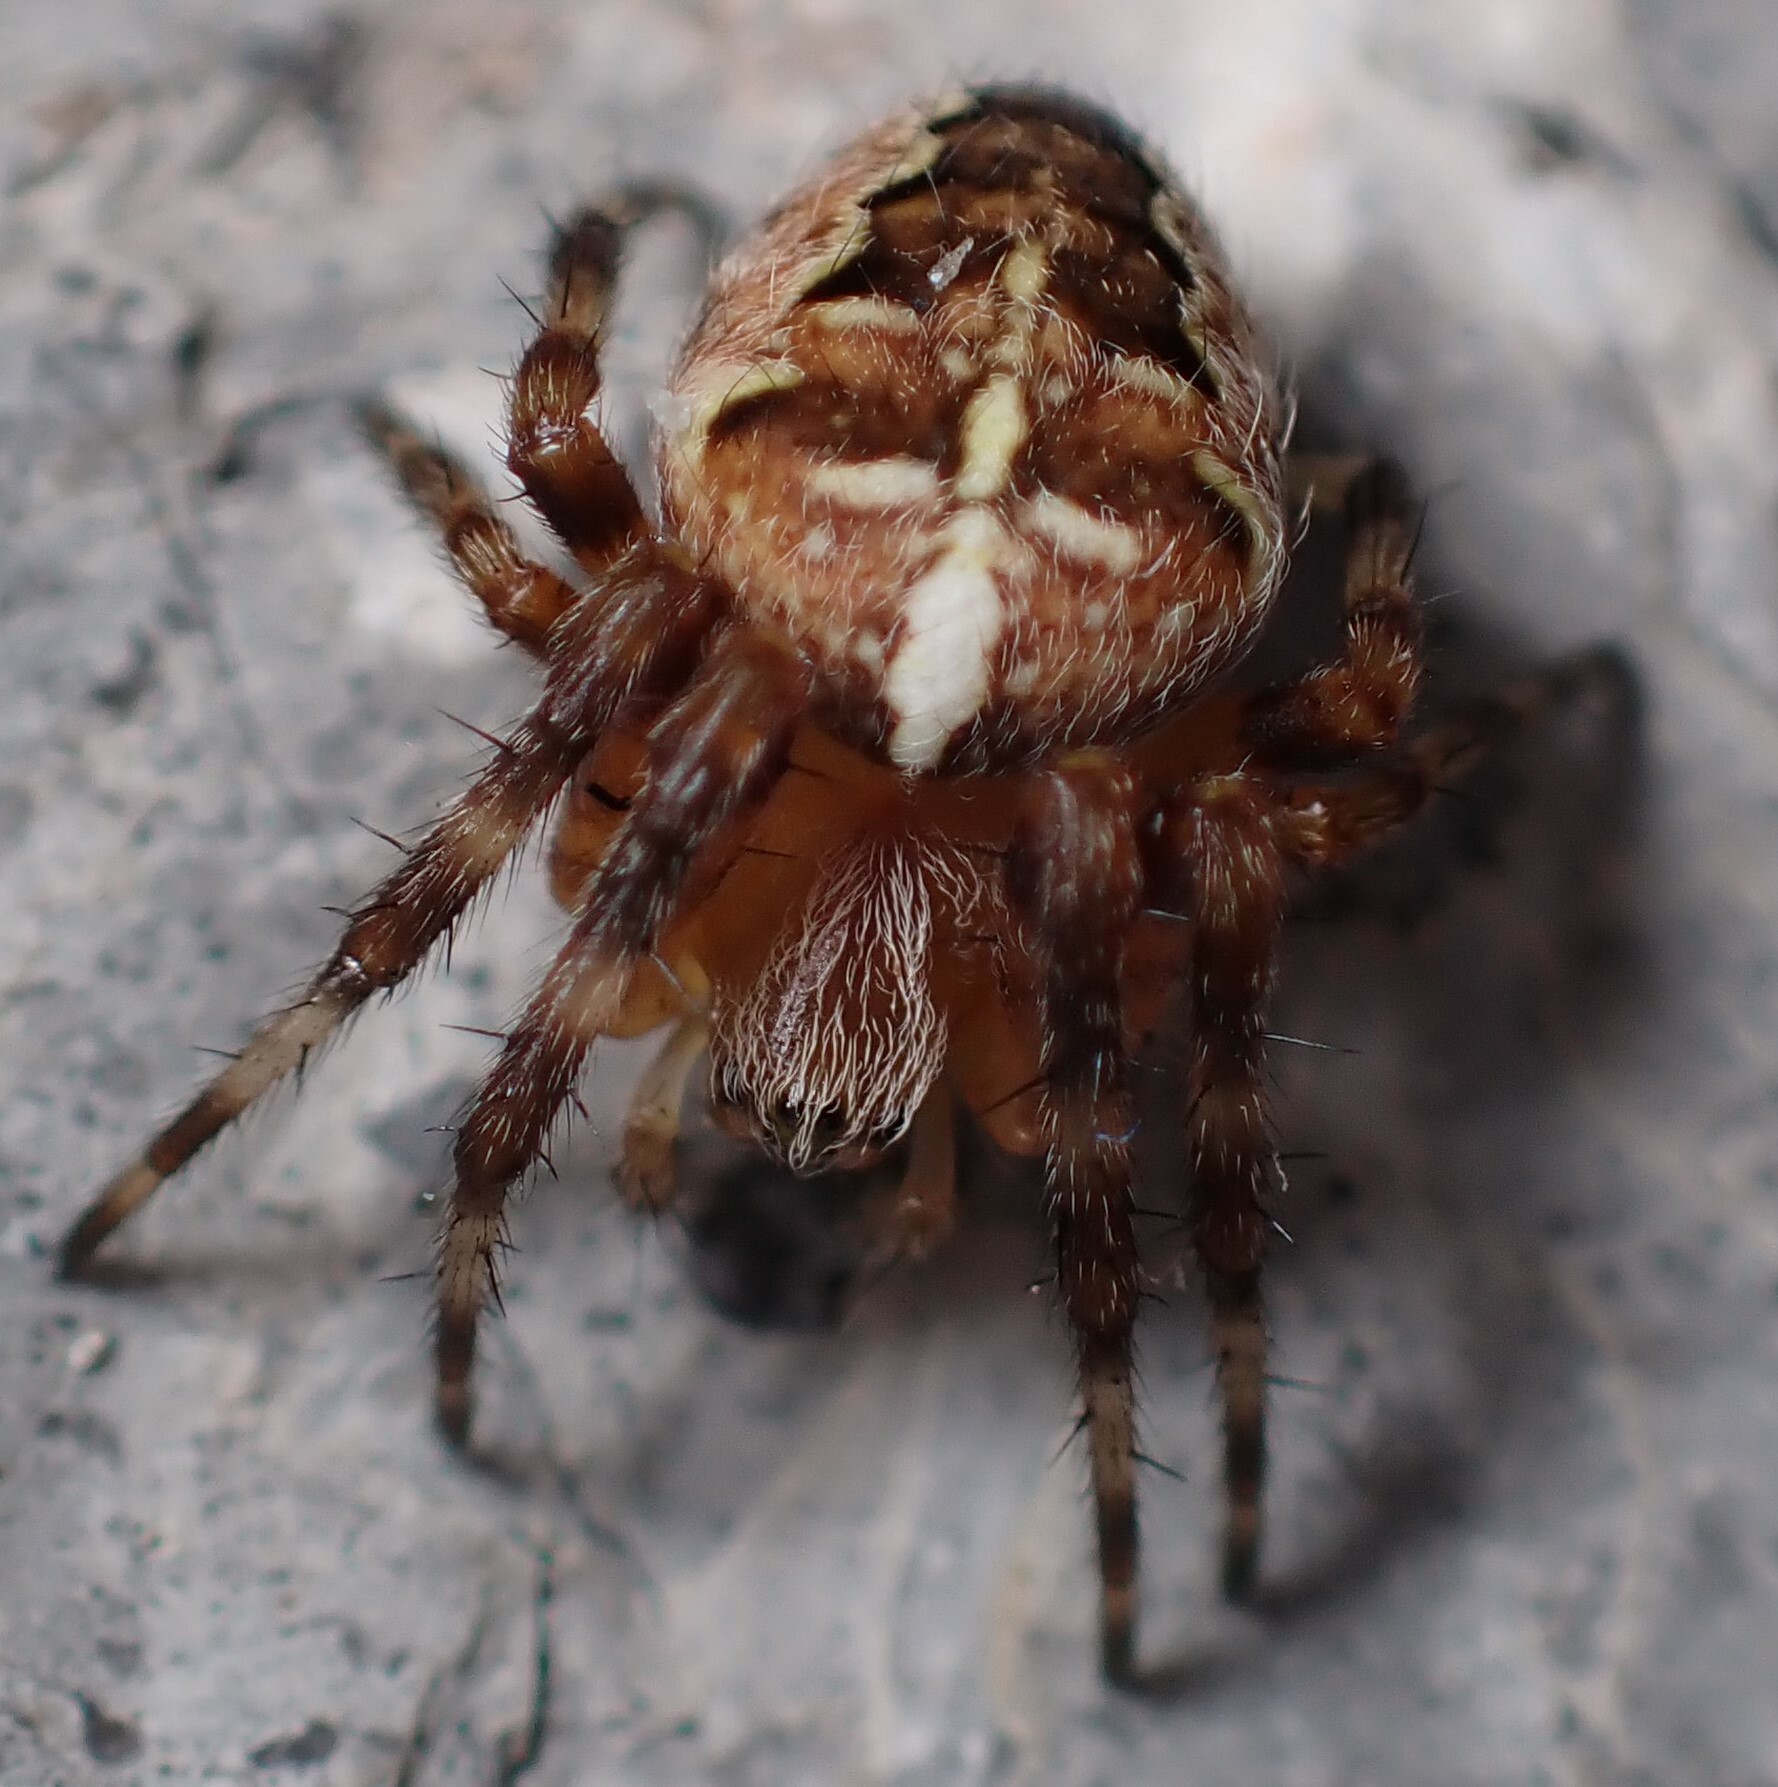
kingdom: Animalia
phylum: Arthropoda
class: Arachnida
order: Araneae
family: Araneidae
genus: Araneus
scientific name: Araneus diadematus
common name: Cross orbweaver
